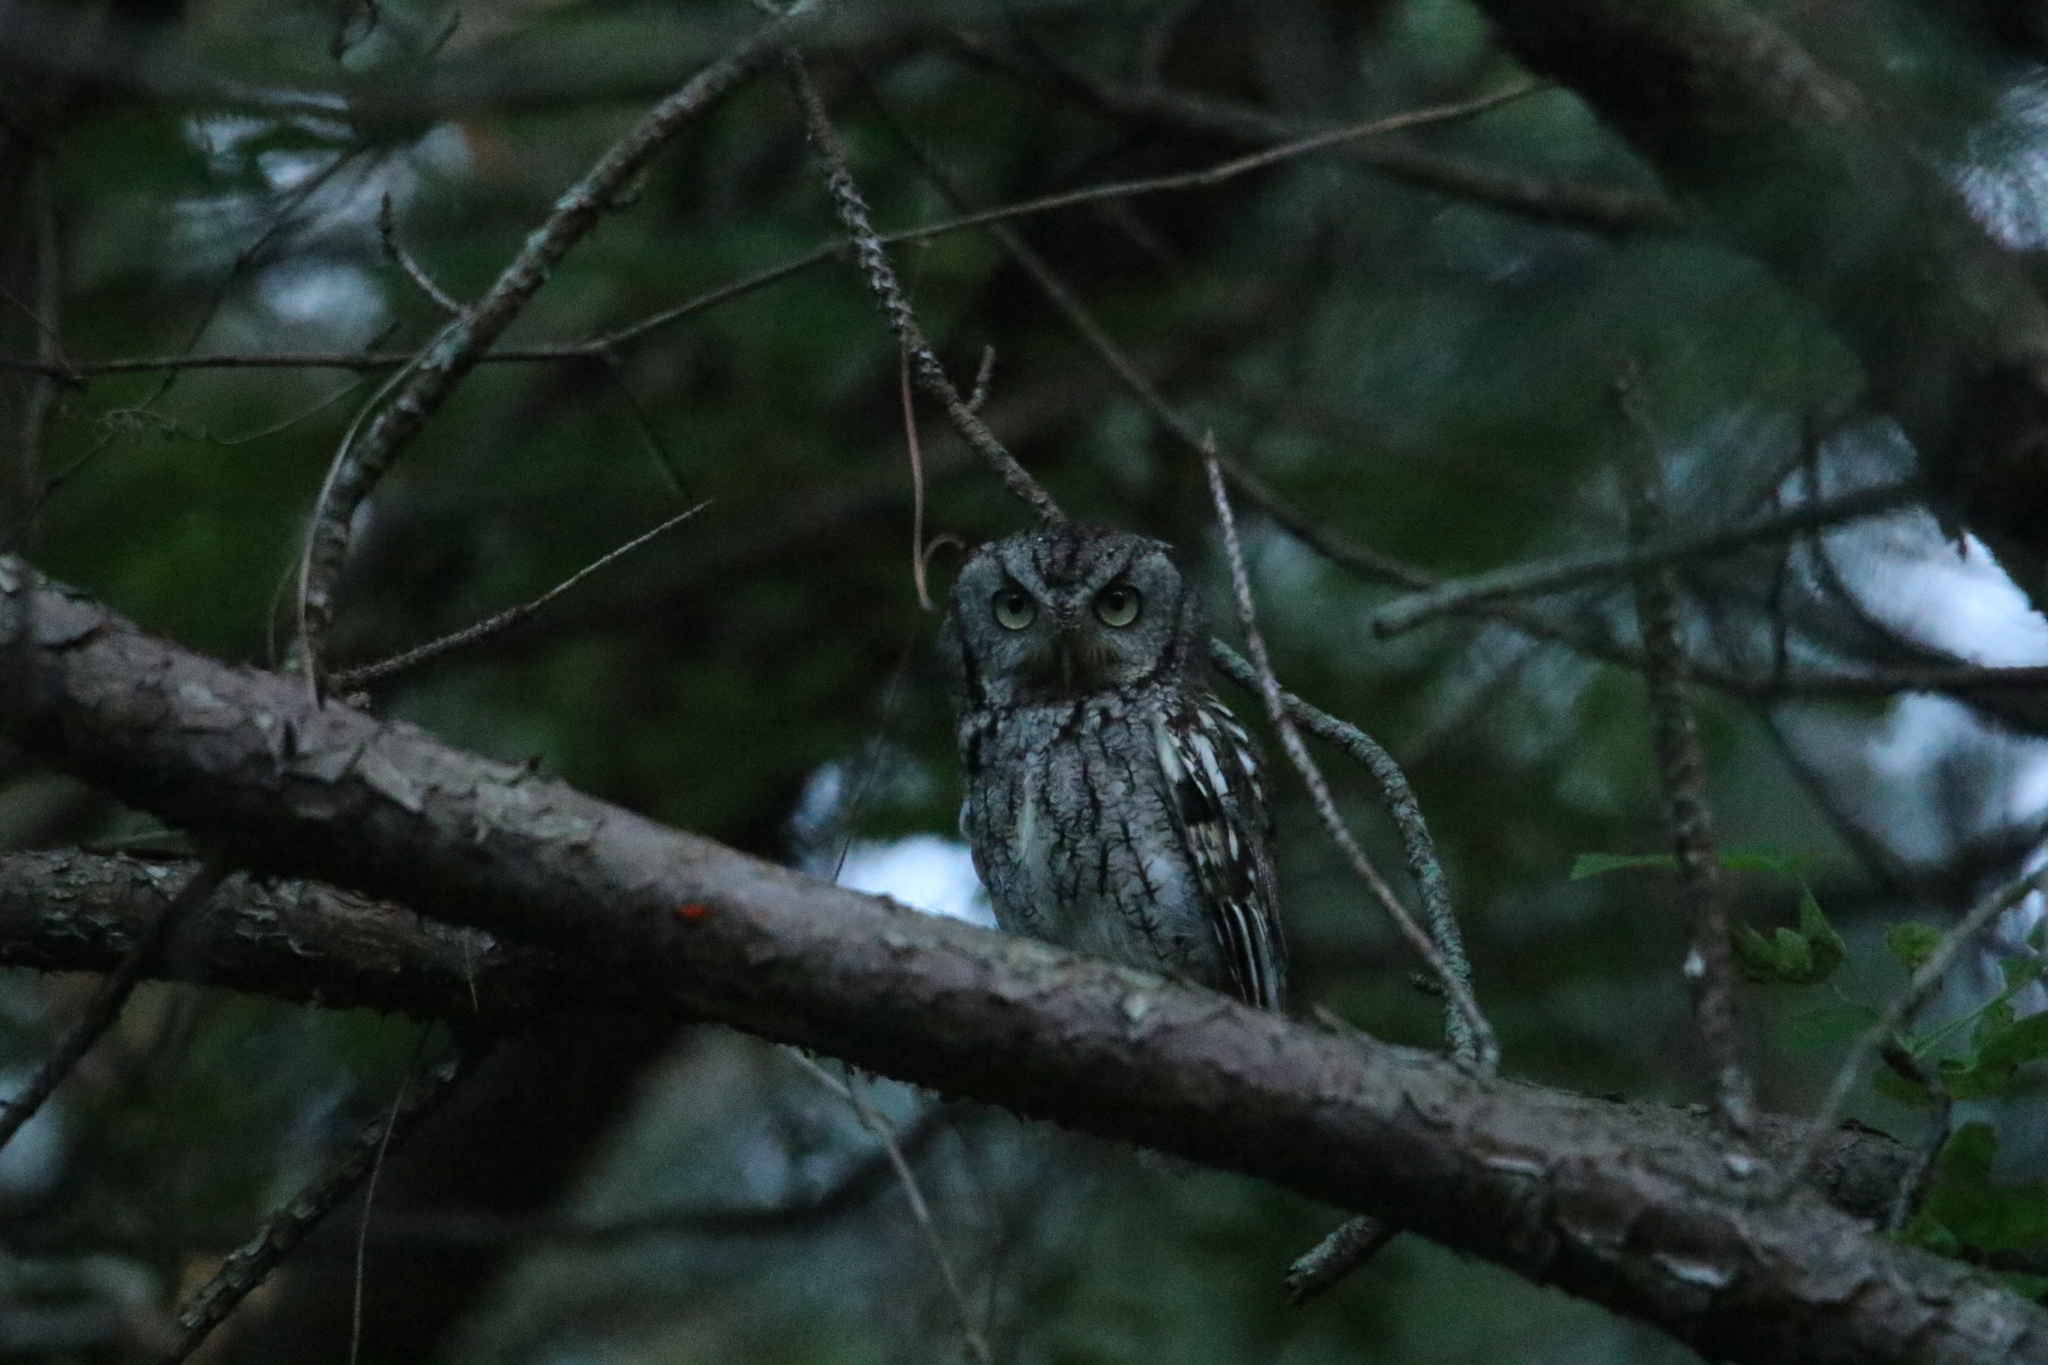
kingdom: Animalia
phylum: Chordata
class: Aves
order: Strigiformes
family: Strigidae
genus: Megascops
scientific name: Megascops asio
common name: Eastern screech-owl
